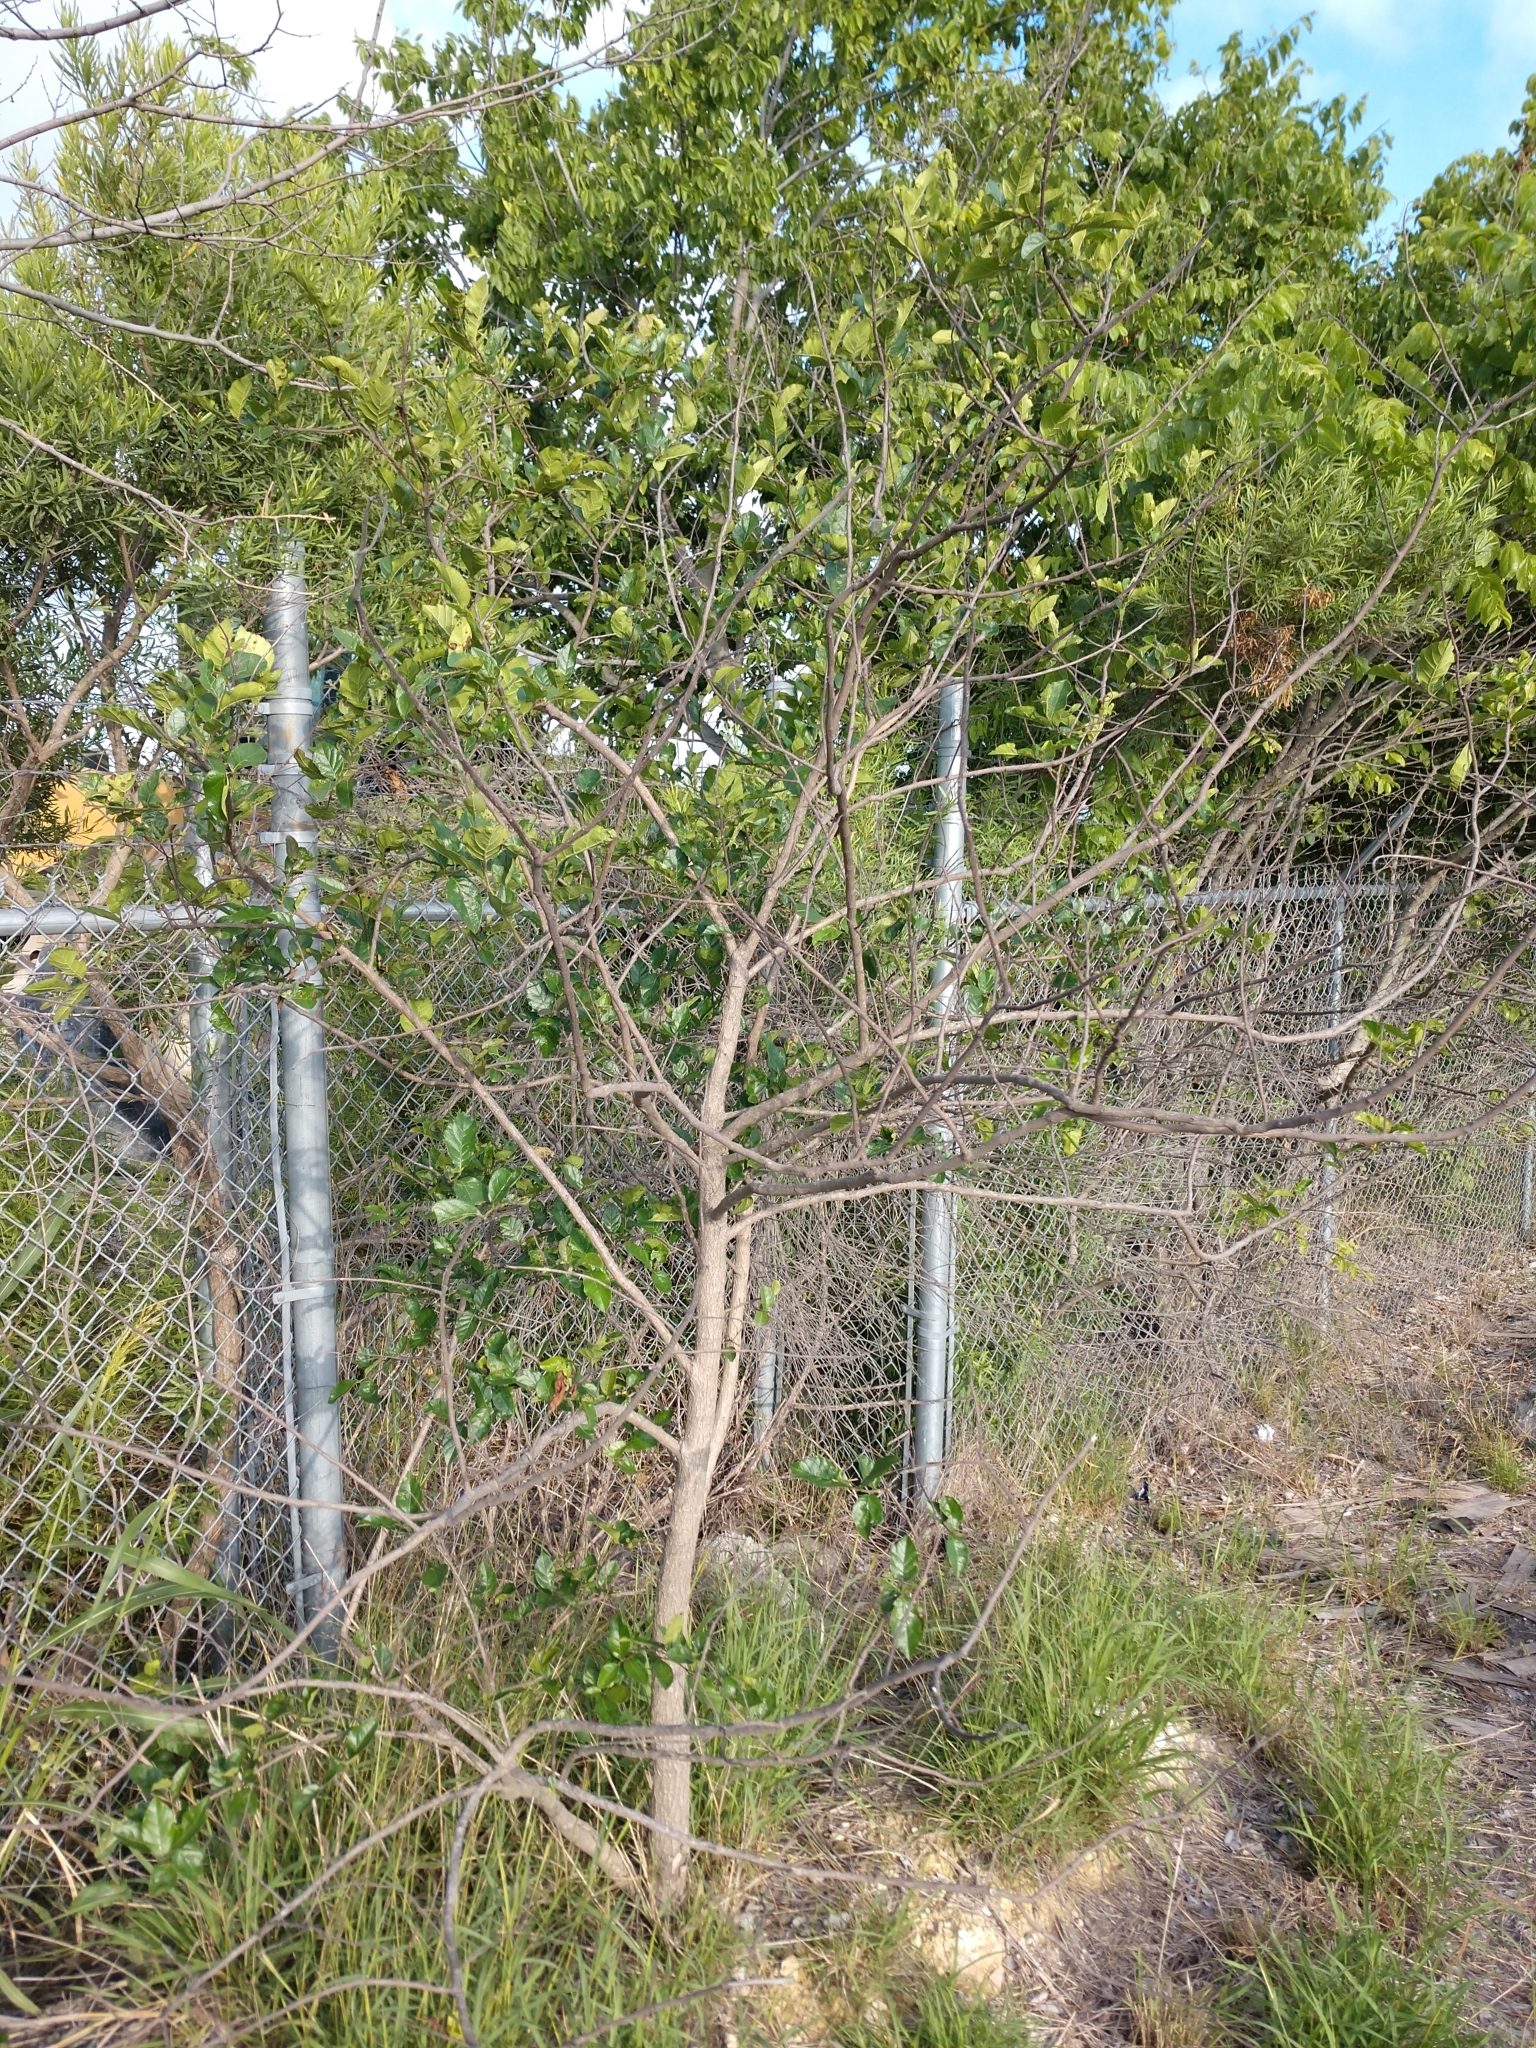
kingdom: Plantae
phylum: Tracheophyta
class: Magnoliopsida
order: Boraginales
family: Ehretiaceae
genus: Ehretia
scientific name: Ehretia anacua
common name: Sugarberry
